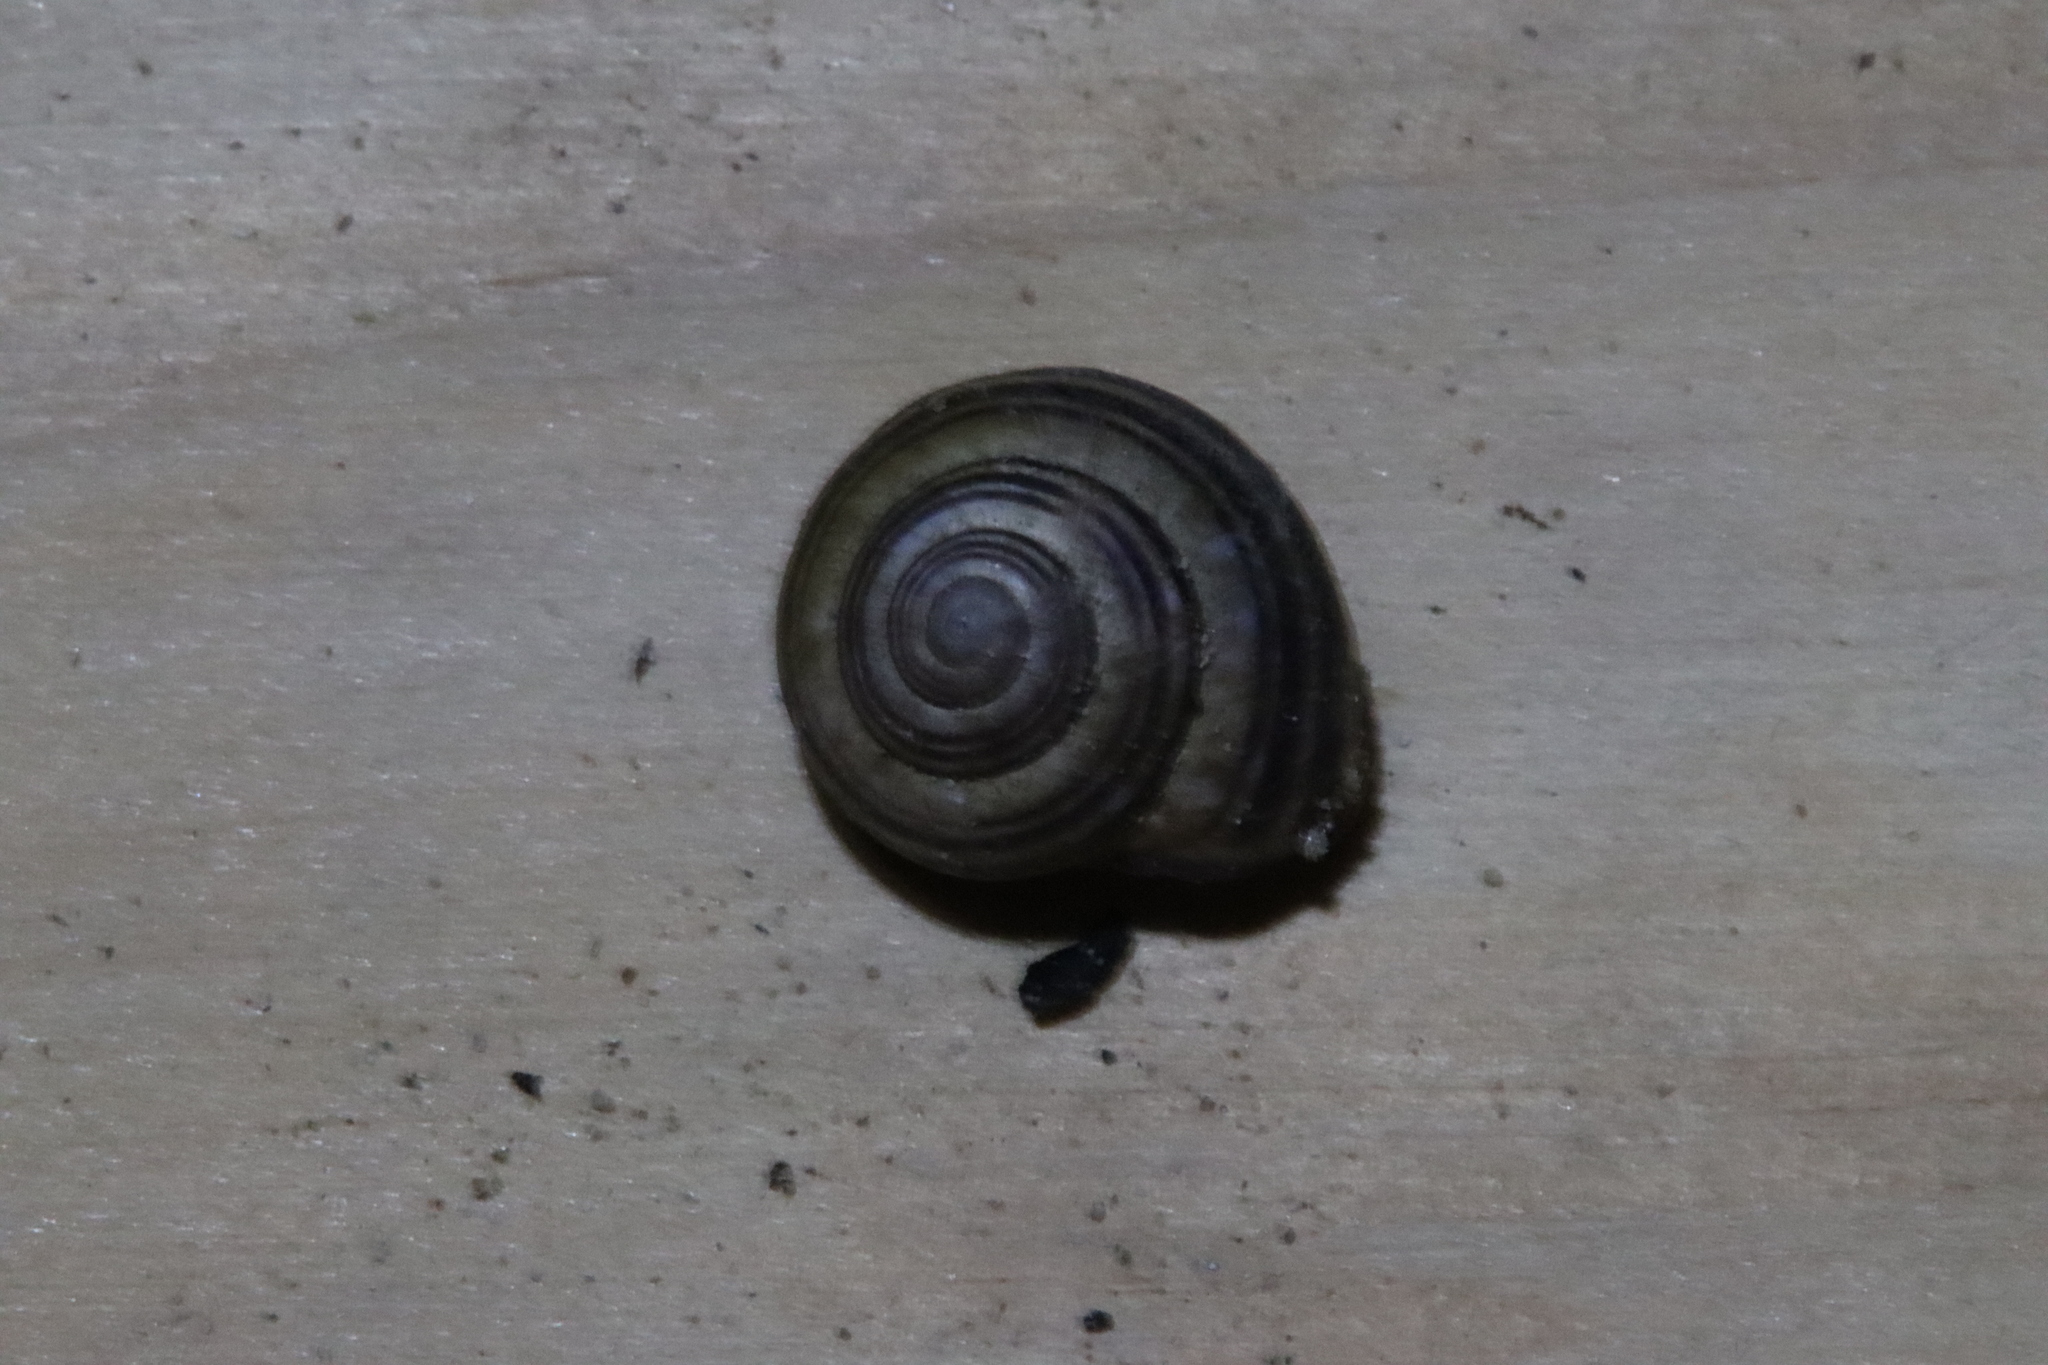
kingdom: Animalia
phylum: Mollusca
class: Gastropoda
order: Stylommatophora
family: Helicidae
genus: Cepaea
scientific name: Cepaea nemoralis
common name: Grovesnail
